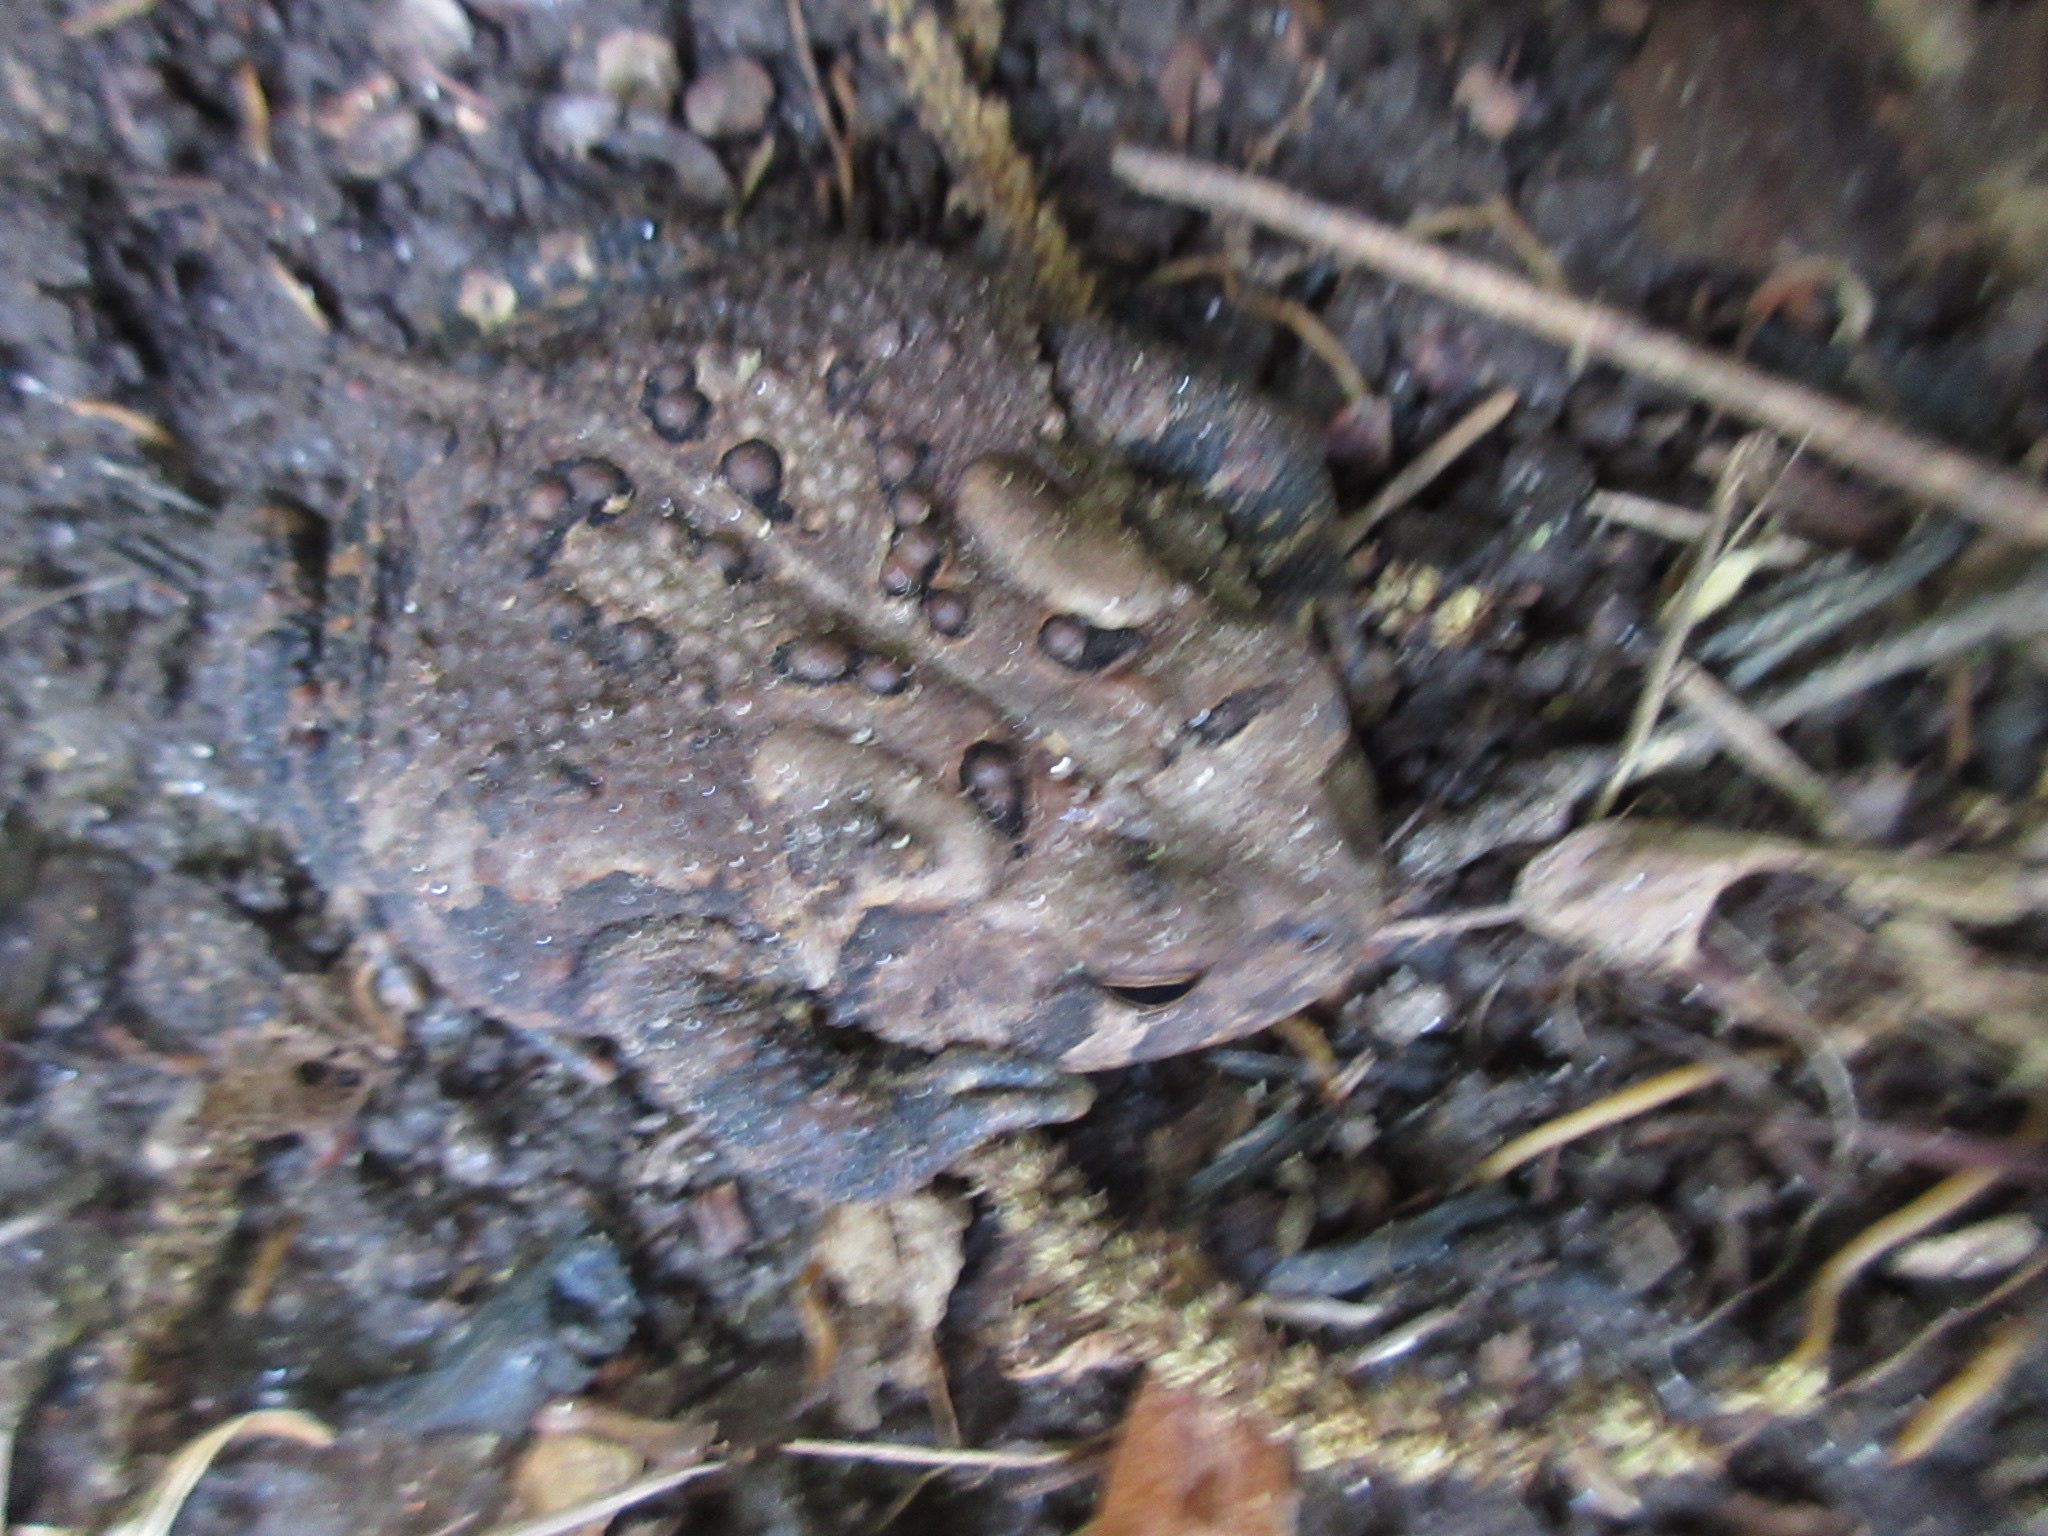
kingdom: Animalia
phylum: Chordata
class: Amphibia
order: Anura
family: Bufonidae
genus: Anaxyrus
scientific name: Anaxyrus americanus
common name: American toad
